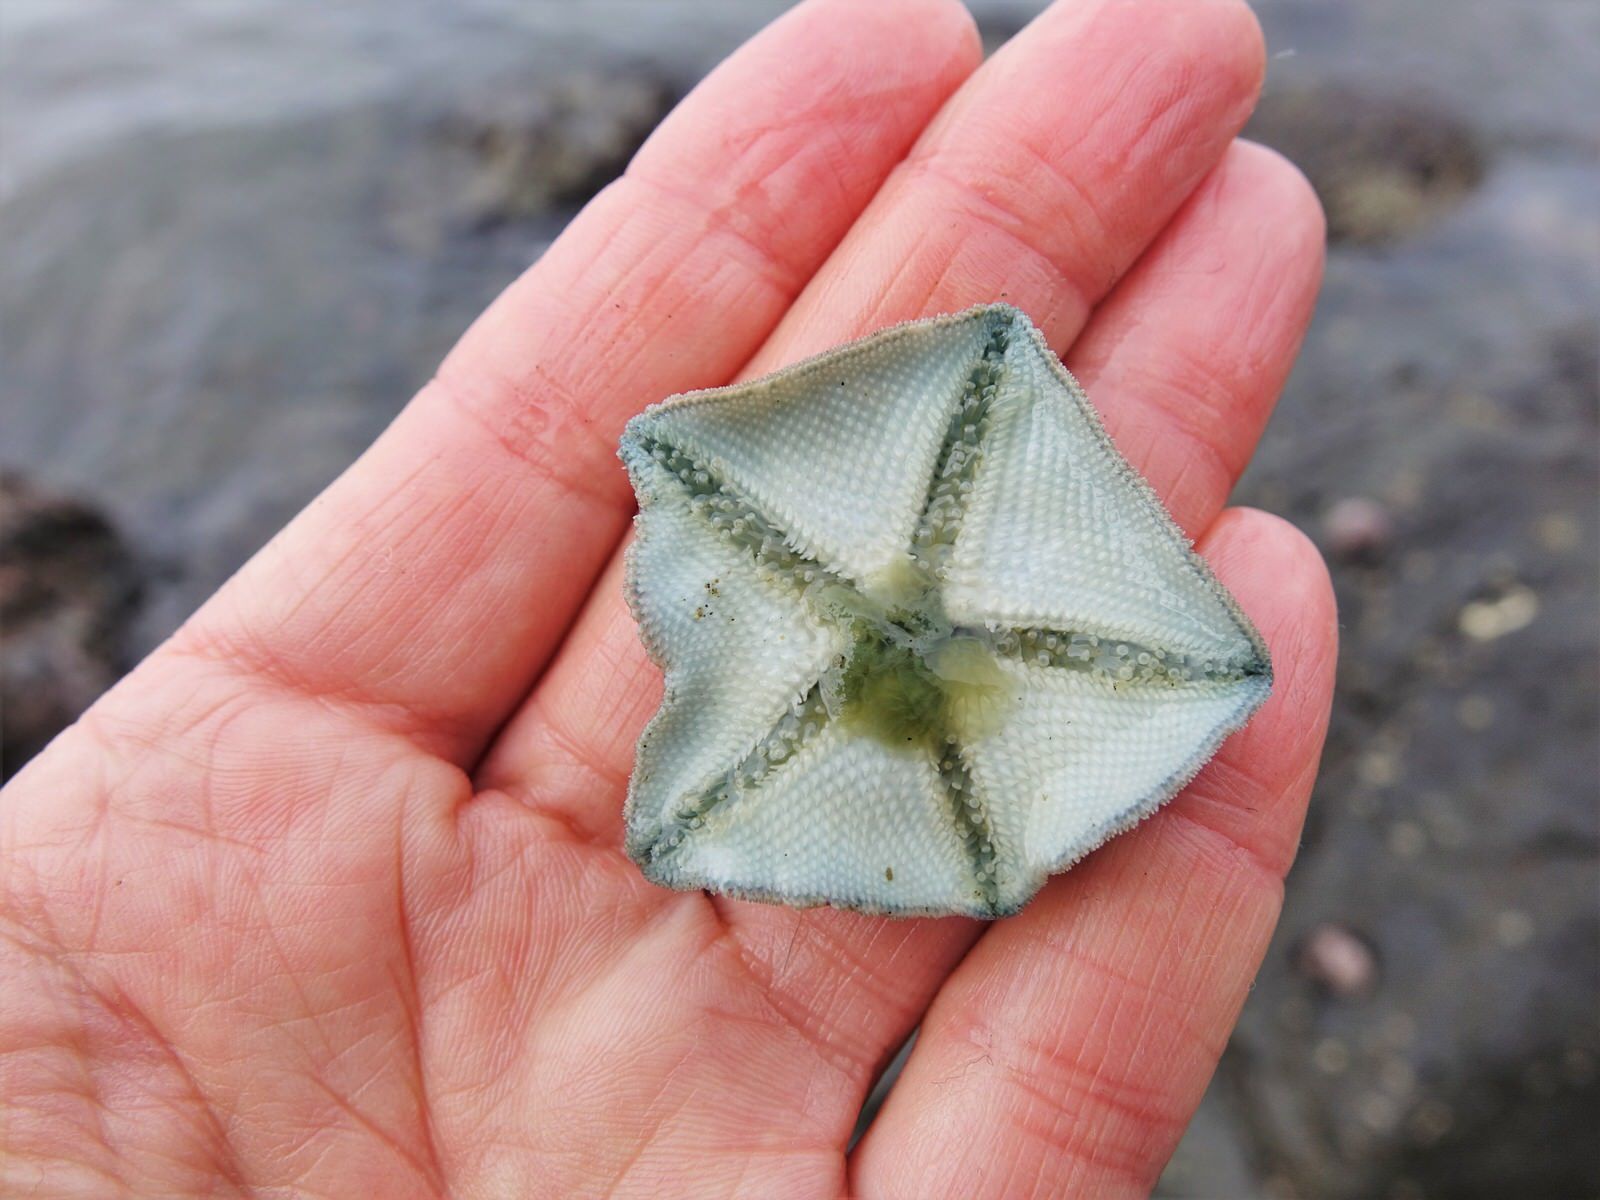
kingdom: Animalia
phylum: Echinodermata
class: Asteroidea
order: Valvatida
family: Asterinidae
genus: Patiriella
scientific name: Patiriella regularis
